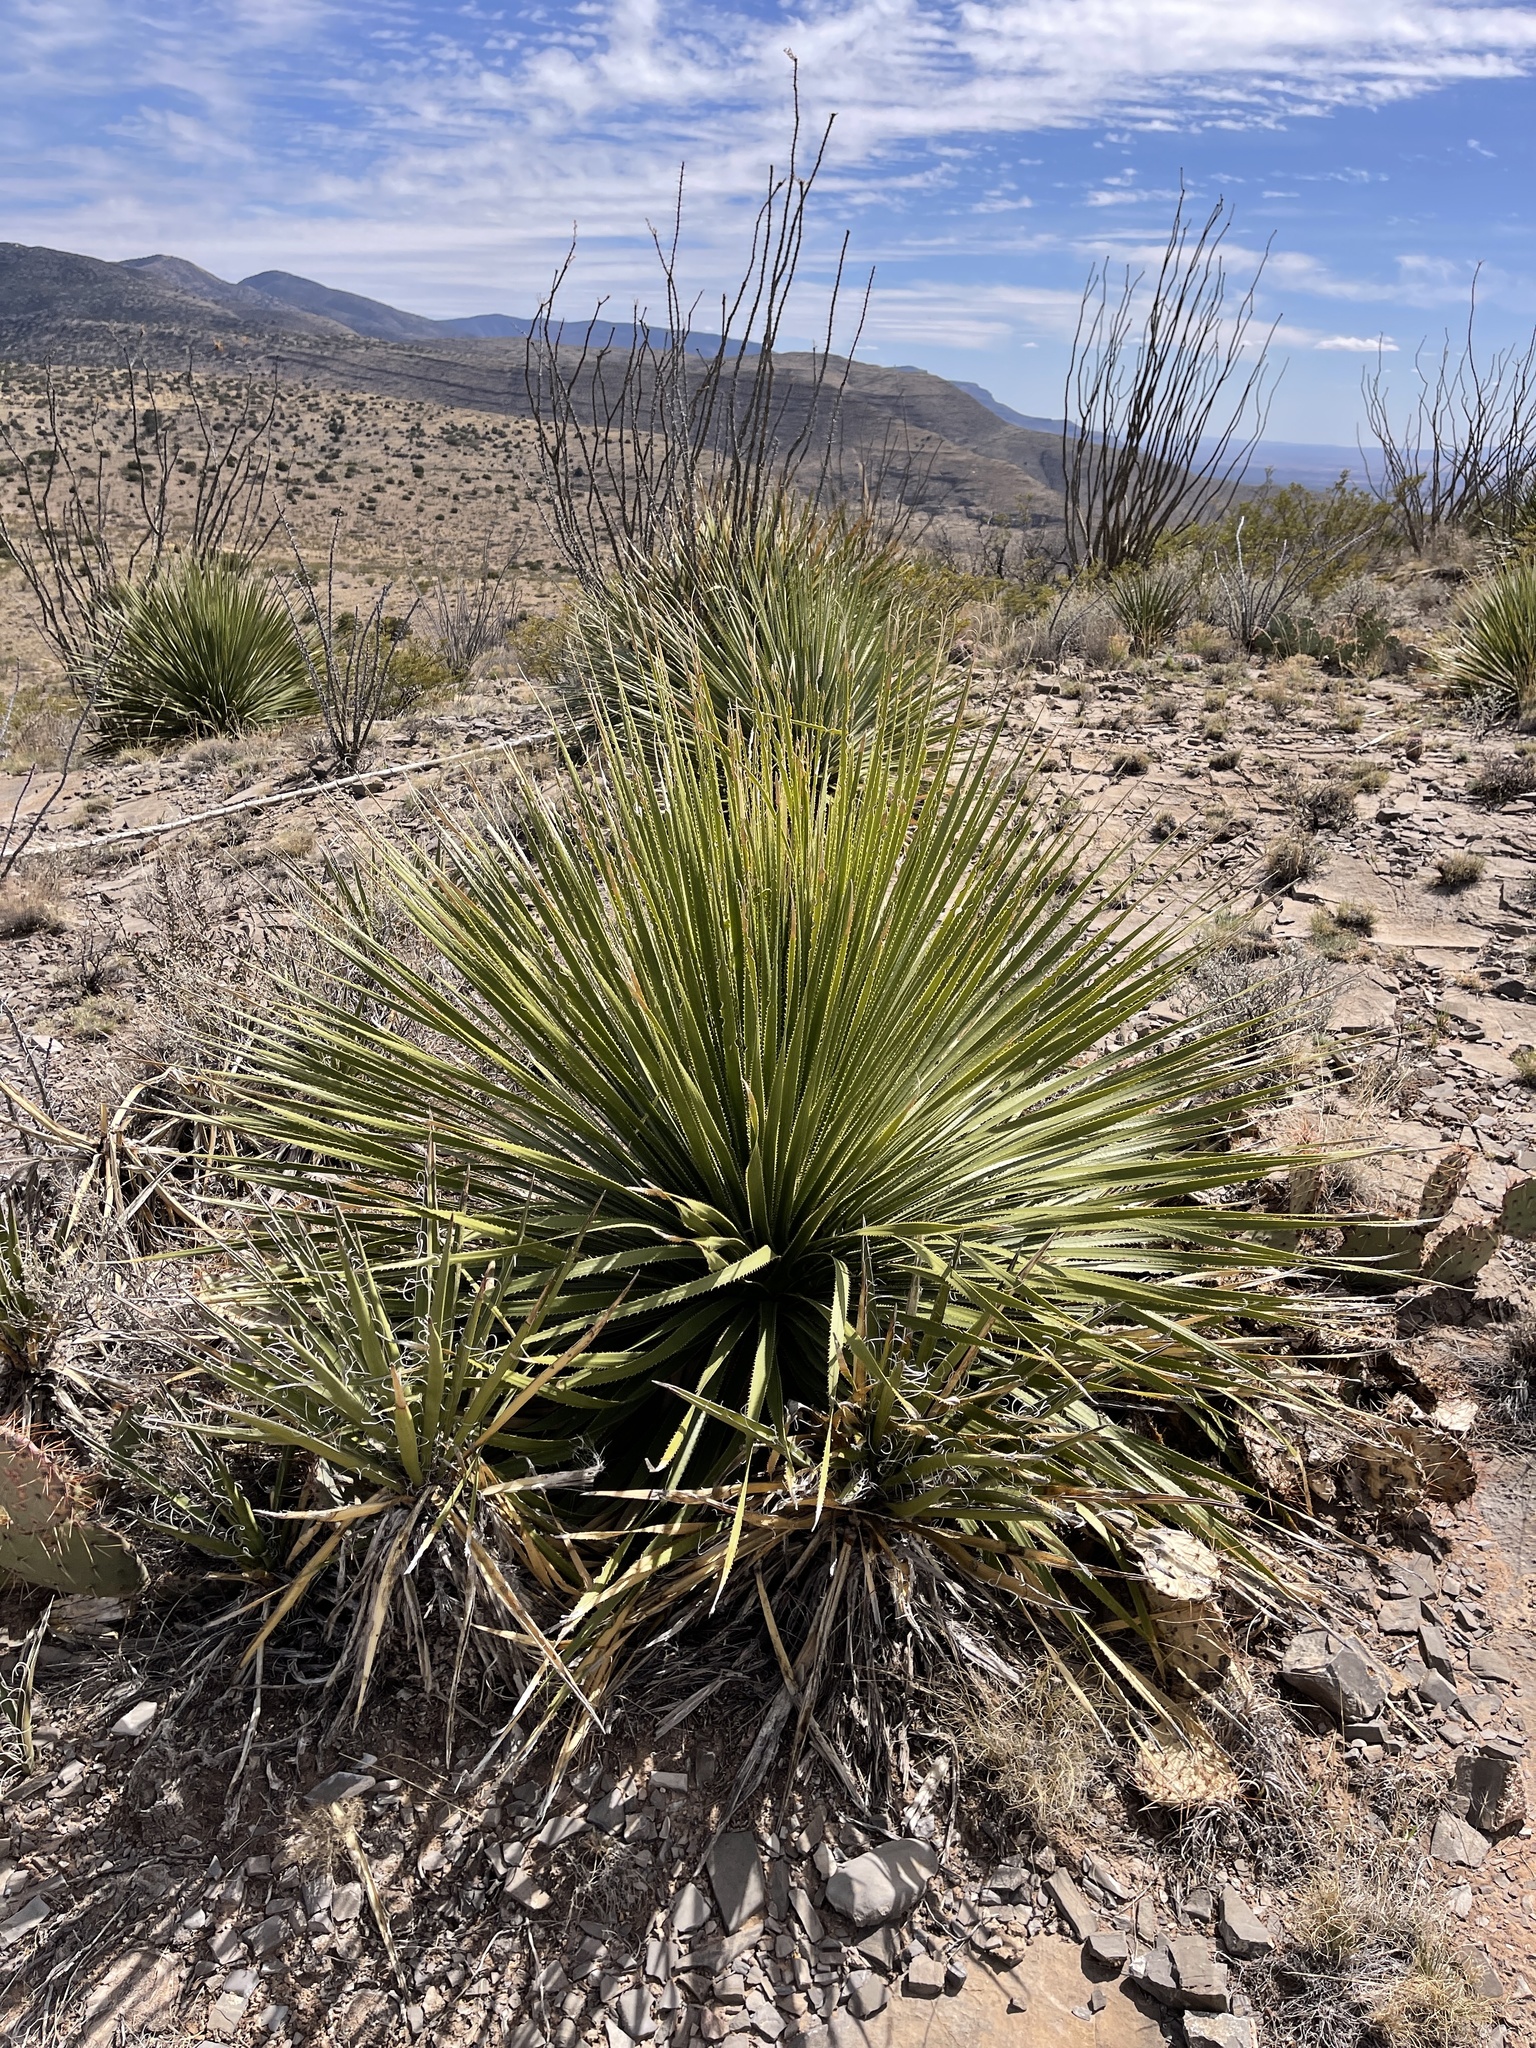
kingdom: Plantae
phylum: Tracheophyta
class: Liliopsida
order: Asparagales
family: Asparagaceae
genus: Dasylirion
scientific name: Dasylirion wheeleri
